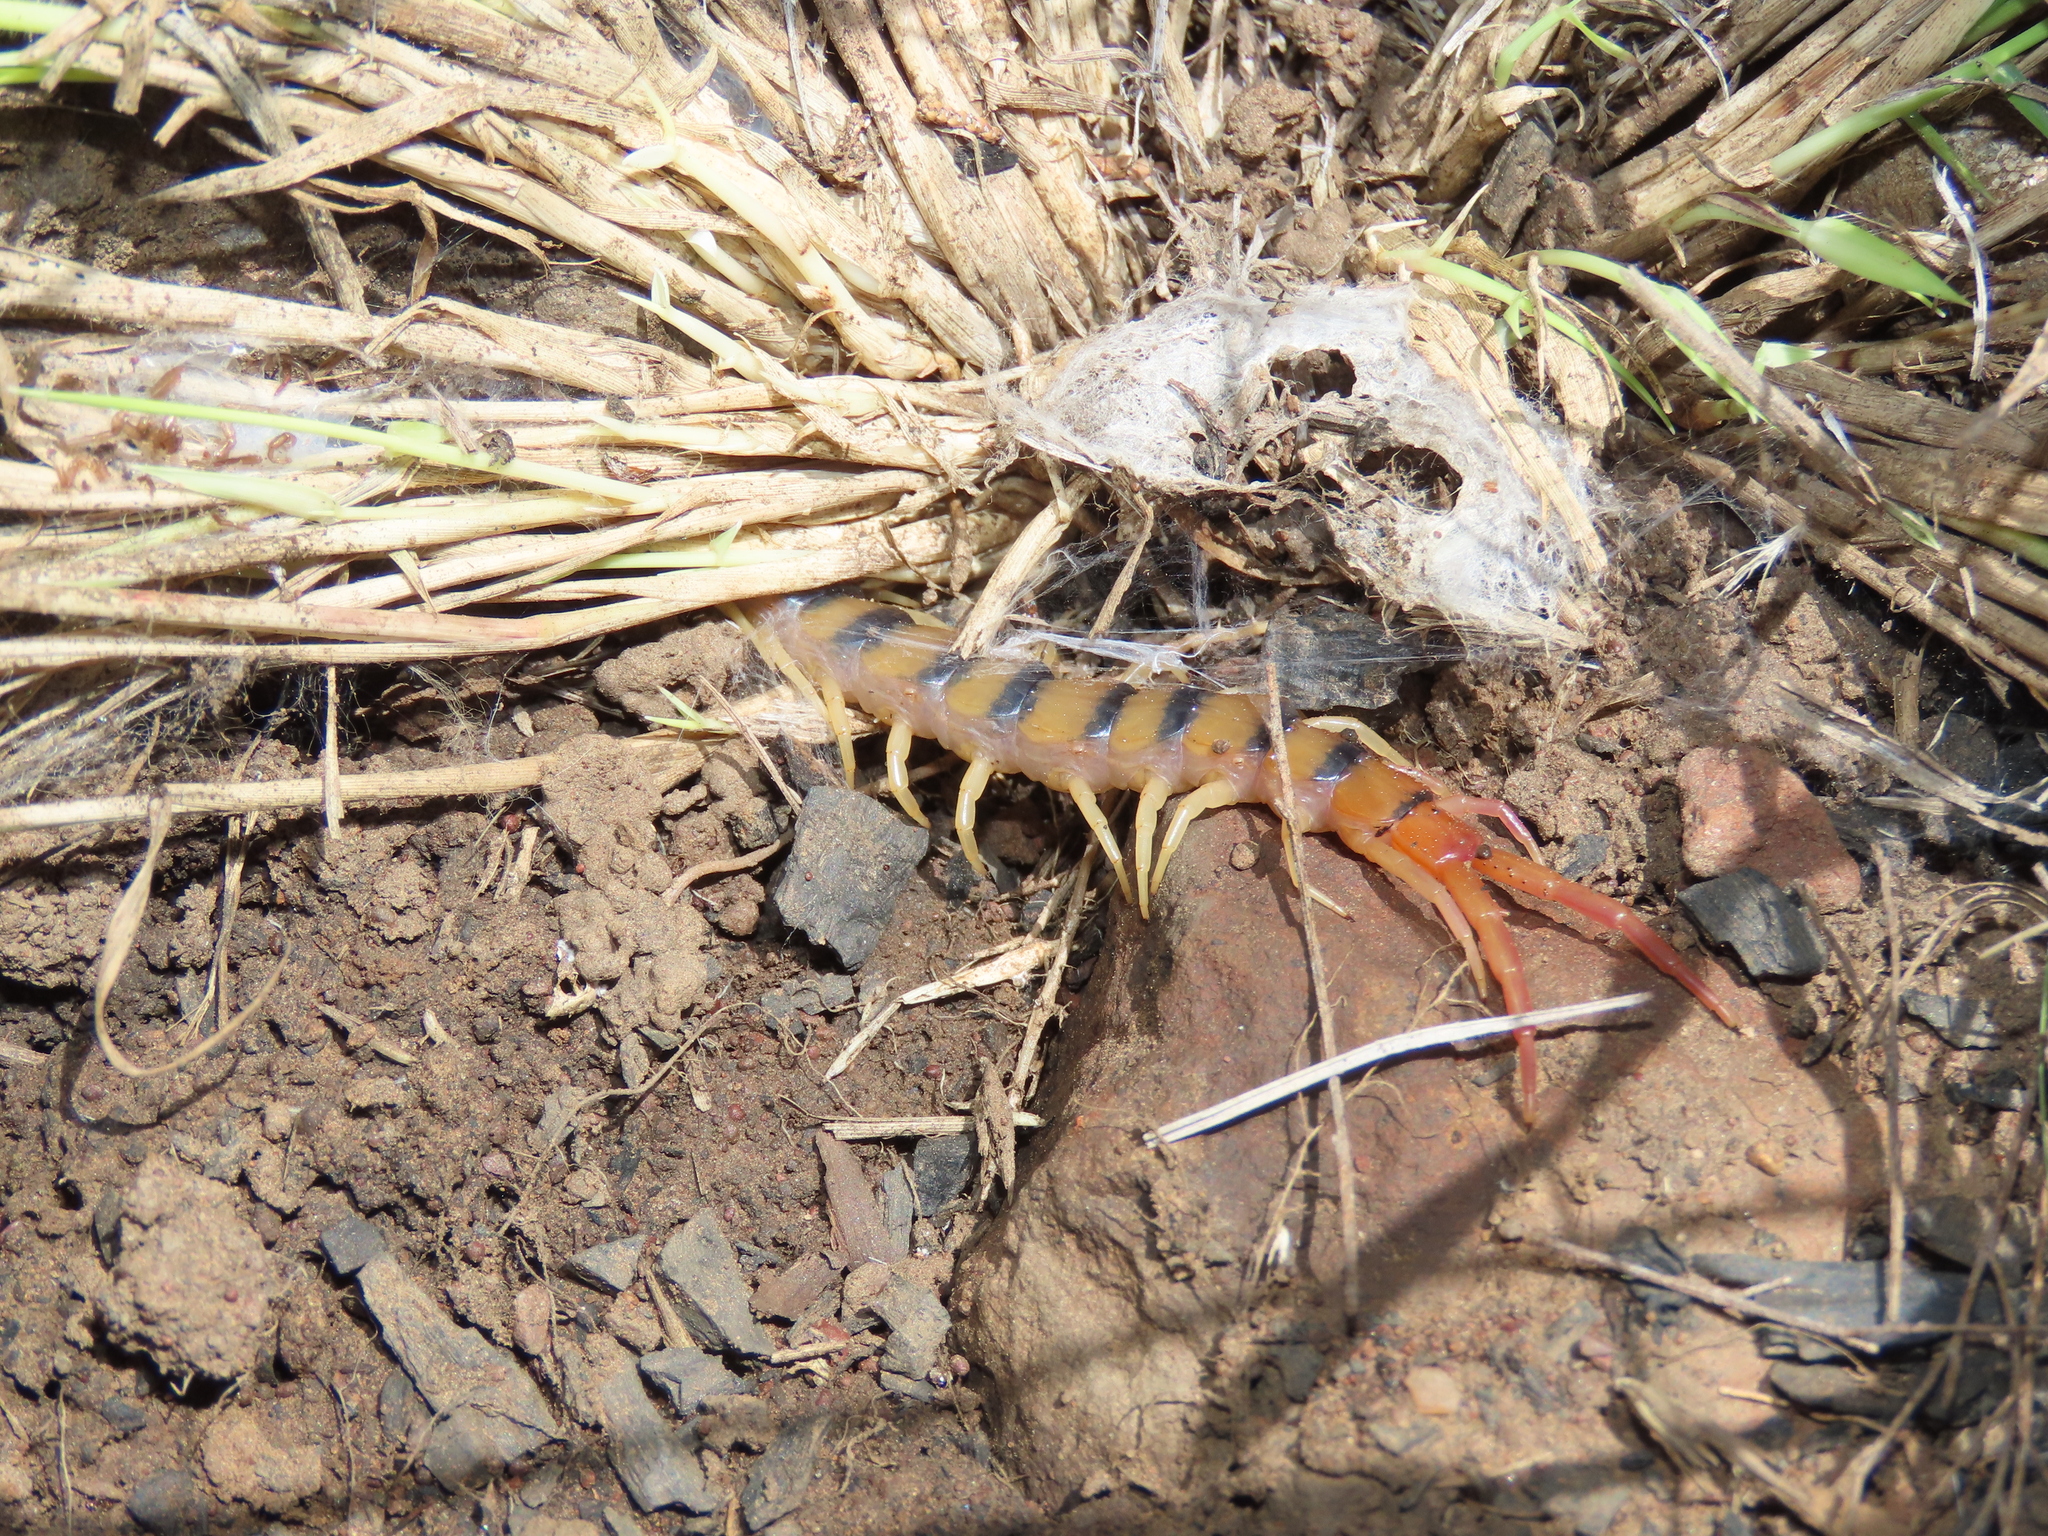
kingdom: Animalia
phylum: Arthropoda
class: Chilopoda
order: Scolopendromorpha
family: Scolopendridae
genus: Scolopendra
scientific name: Scolopendra polymorpha
